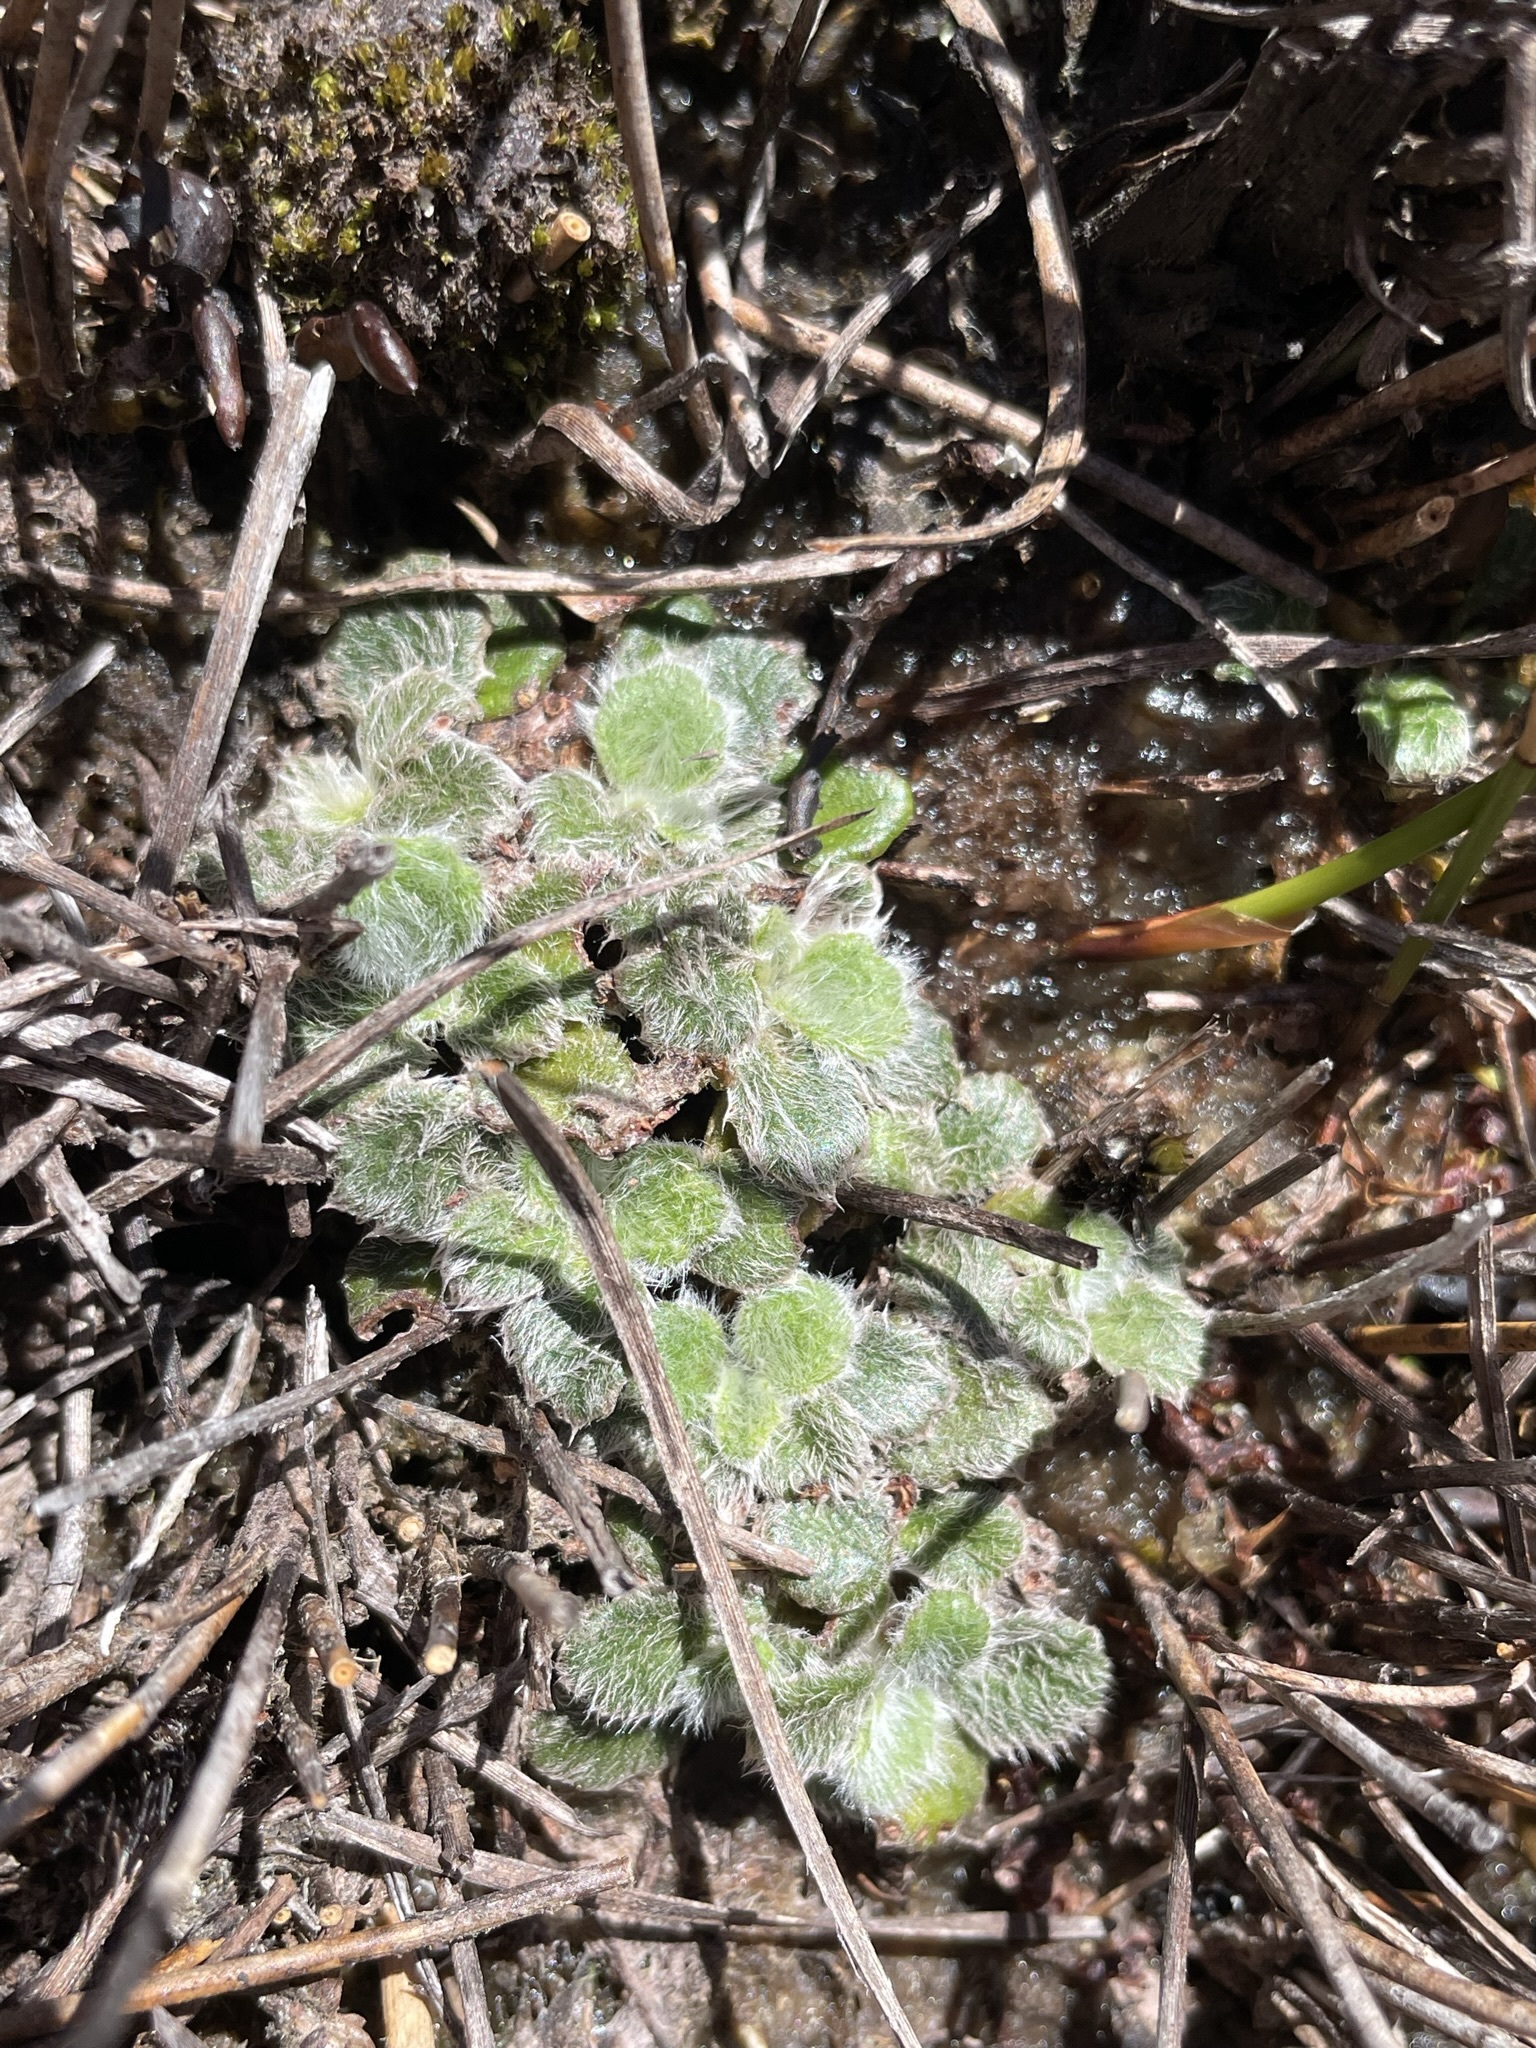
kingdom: Plantae
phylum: Tracheophyta
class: Magnoliopsida
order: Apiales
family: Apiaceae
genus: Actinotus
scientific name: Actinotus bellidioides
